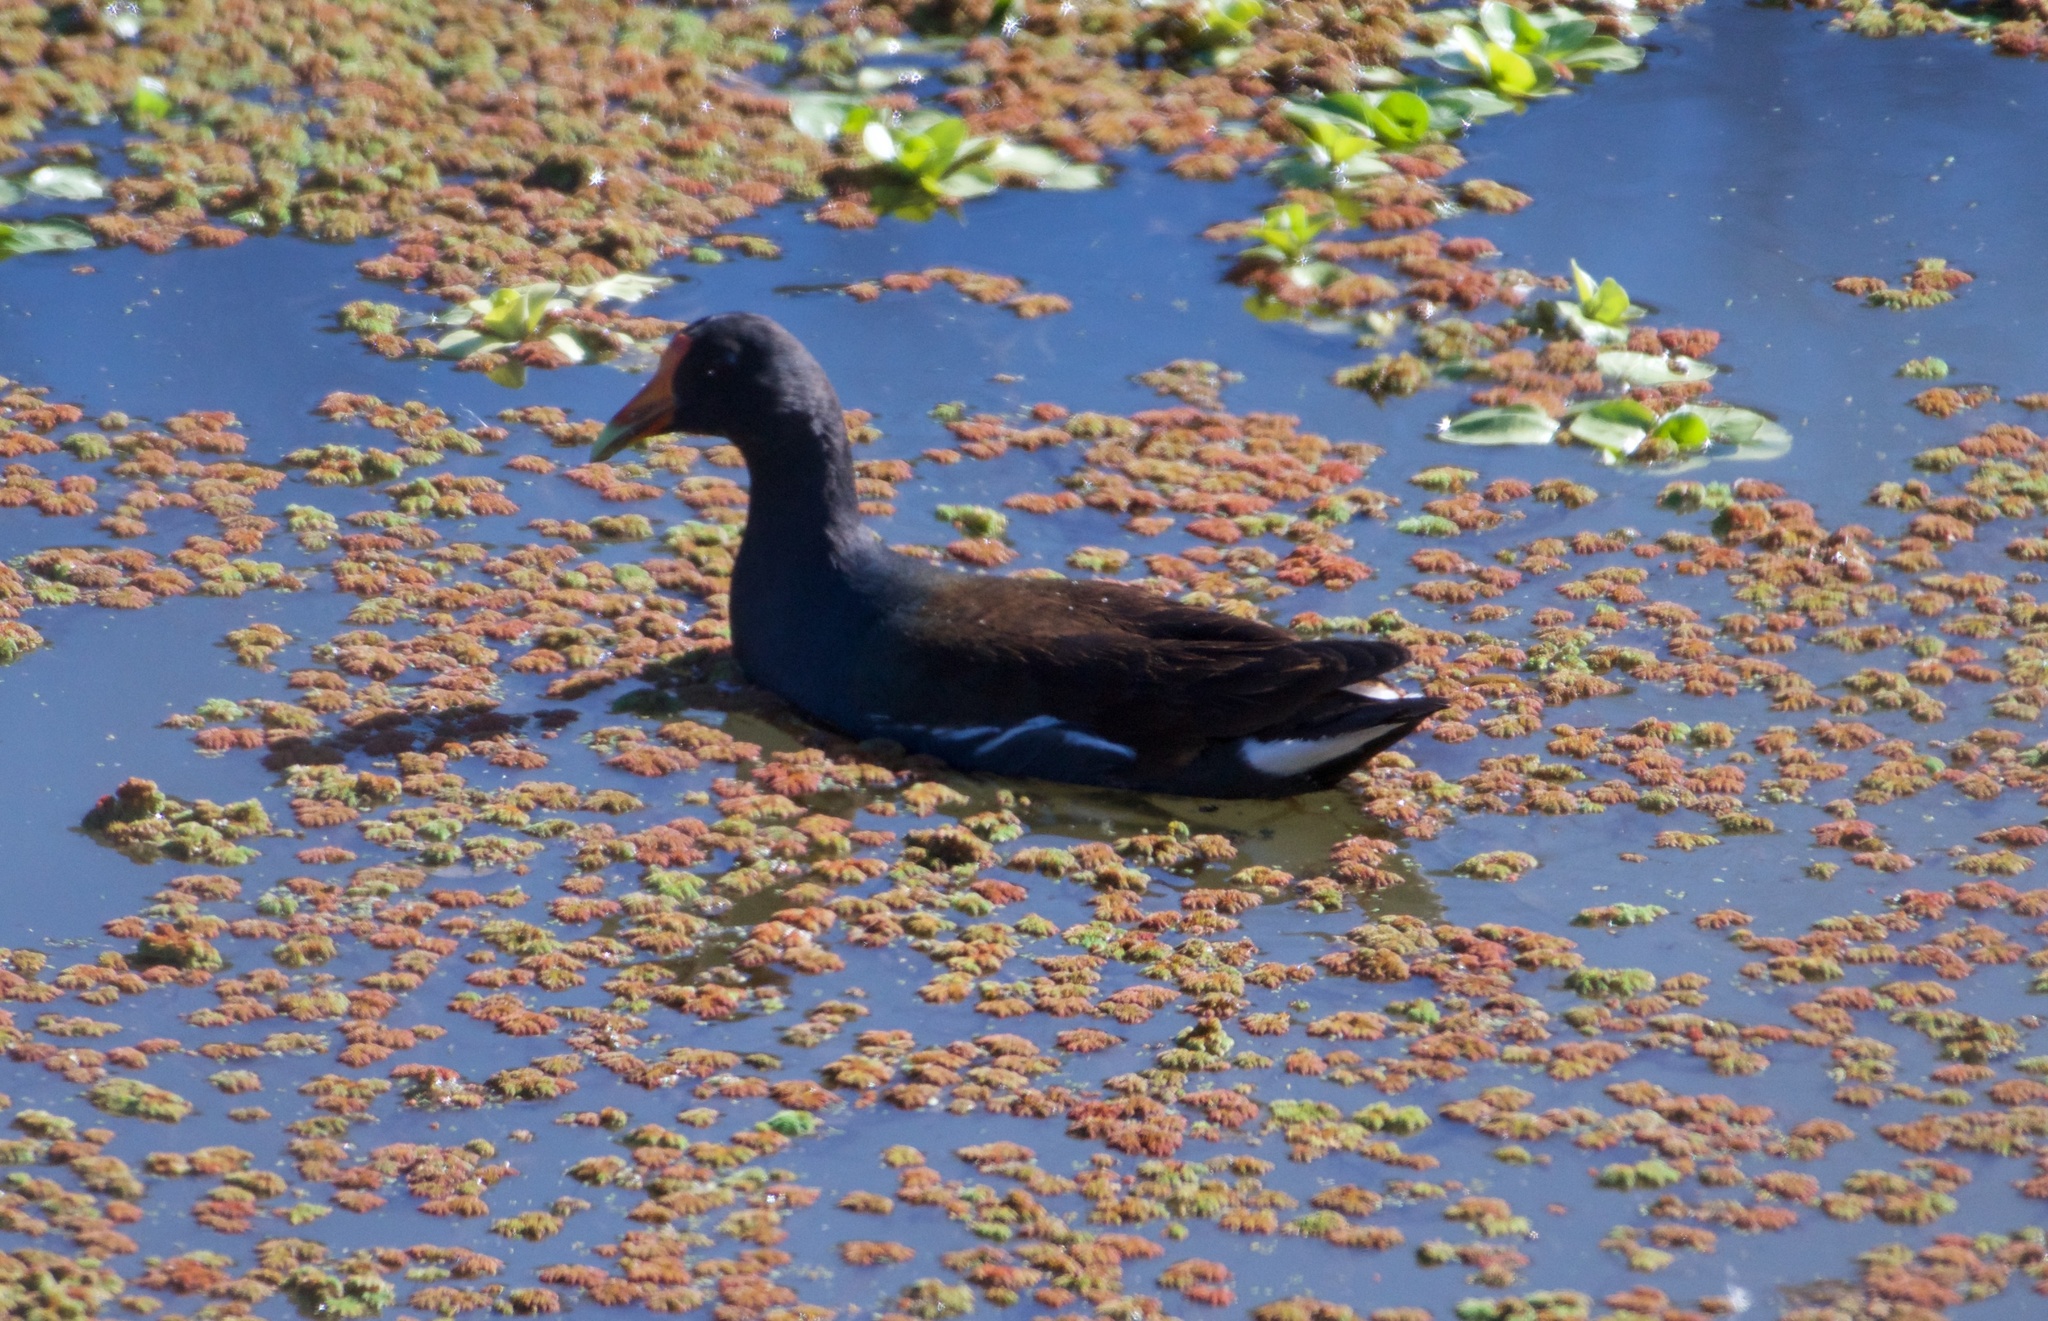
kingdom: Animalia
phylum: Chordata
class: Aves
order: Gruiformes
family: Rallidae
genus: Gallinula
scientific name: Gallinula chloropus
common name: Common moorhen
